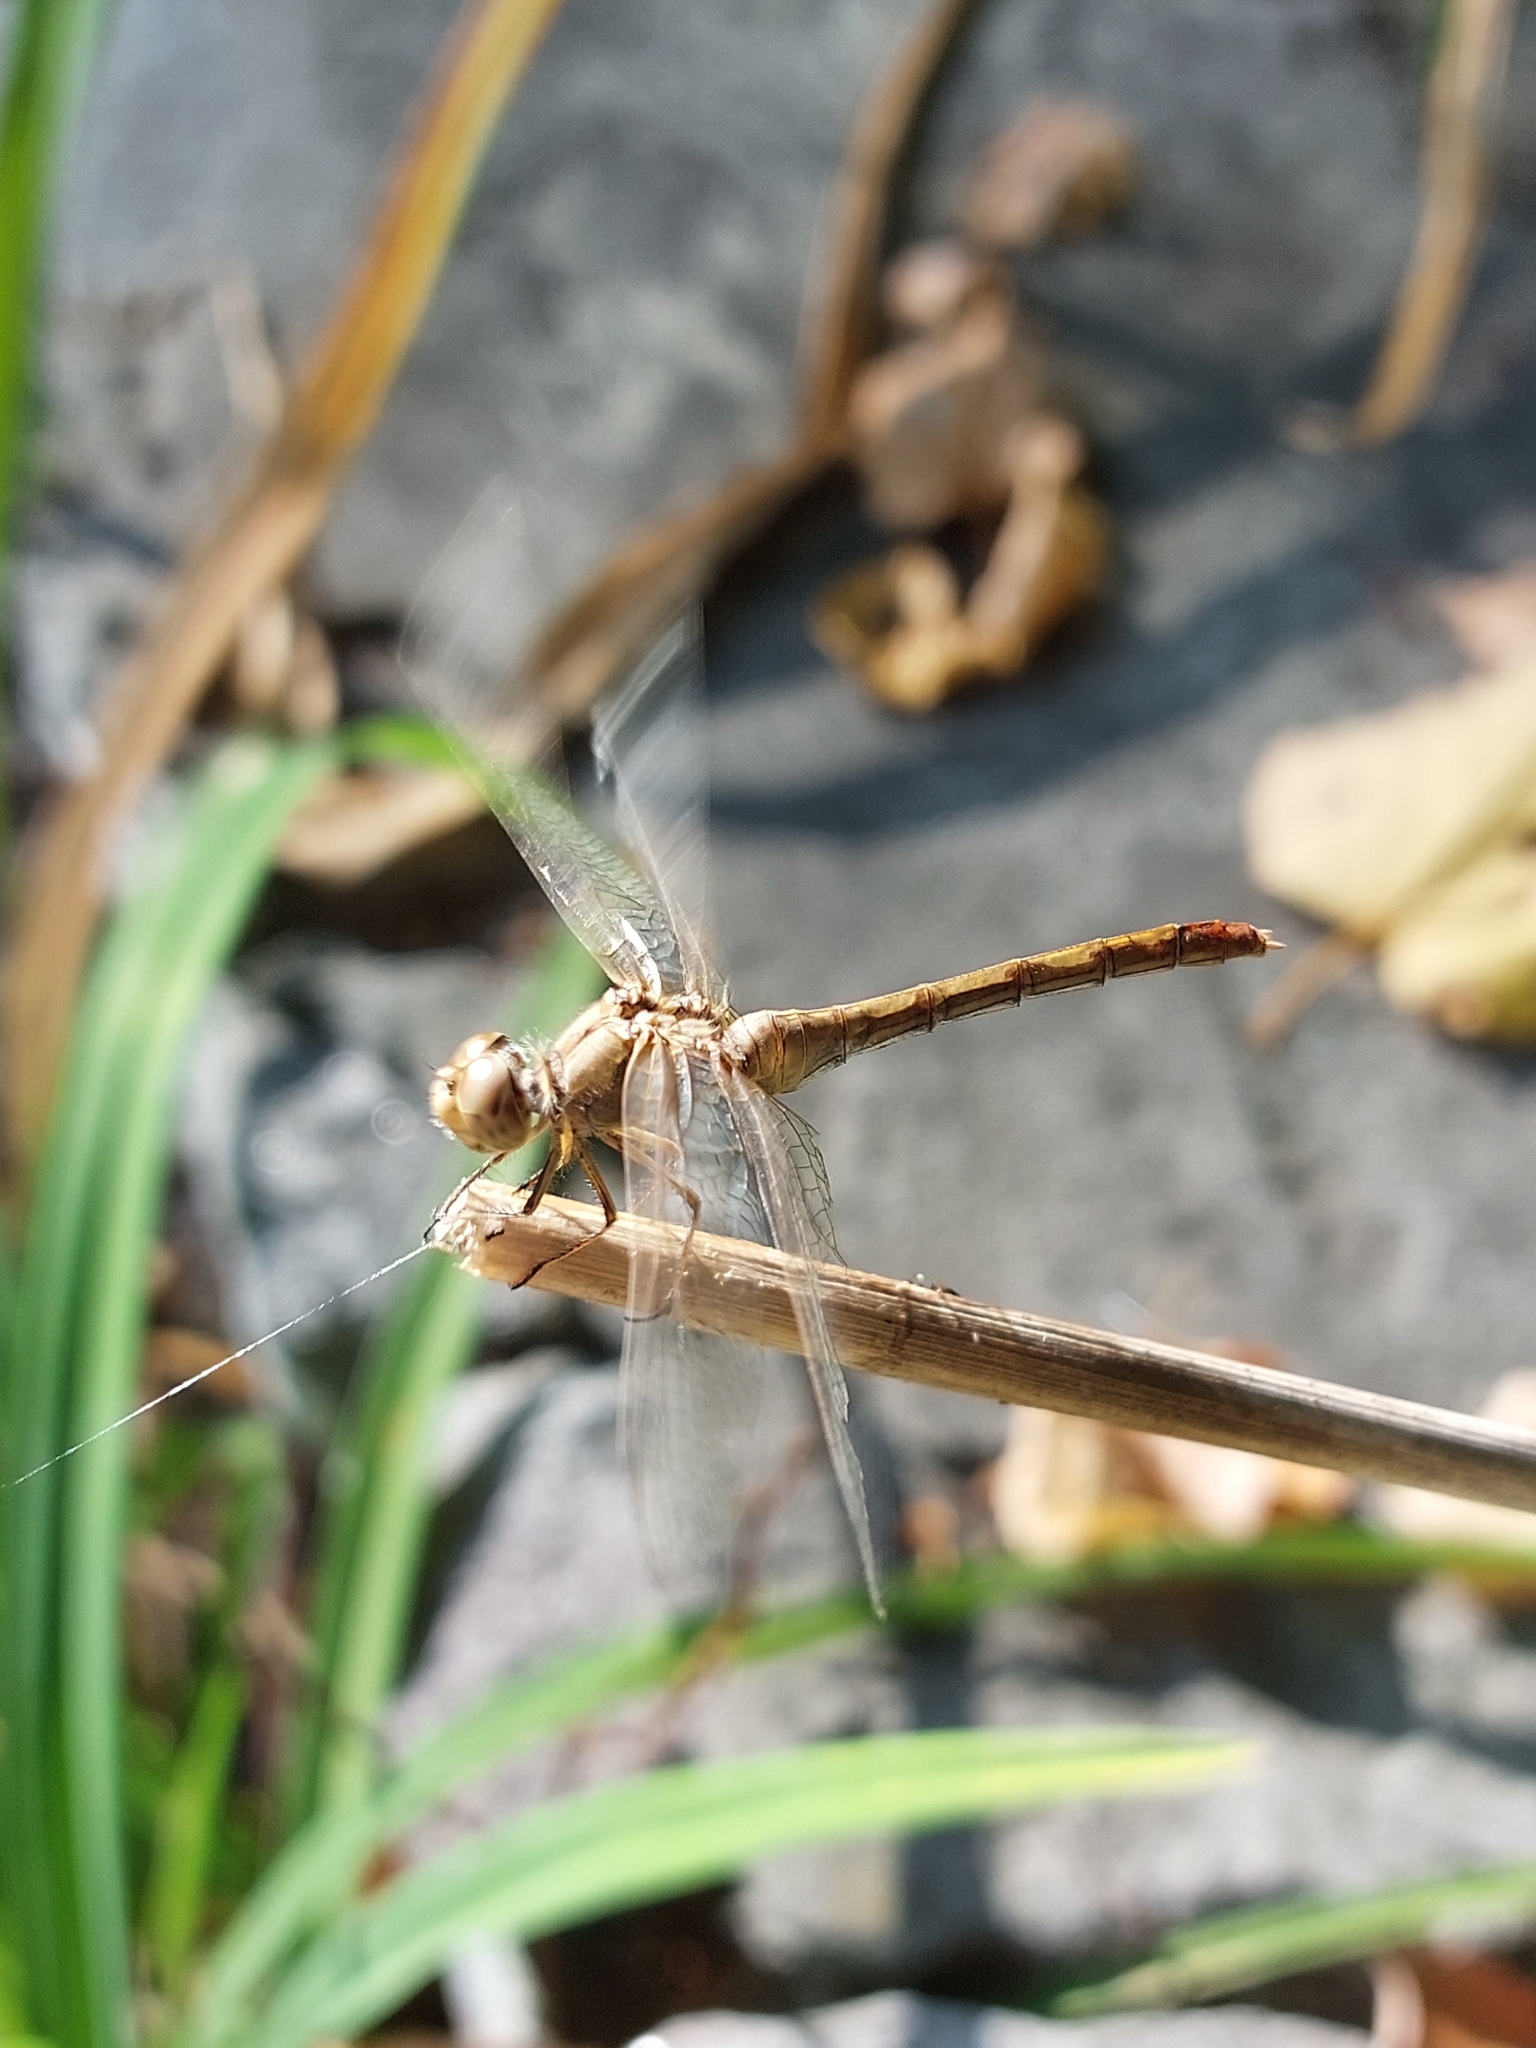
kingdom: Animalia
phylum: Arthropoda
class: Insecta
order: Odonata
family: Libellulidae
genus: Sympetrum
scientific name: Sympetrum meridionale
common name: Southern darter
